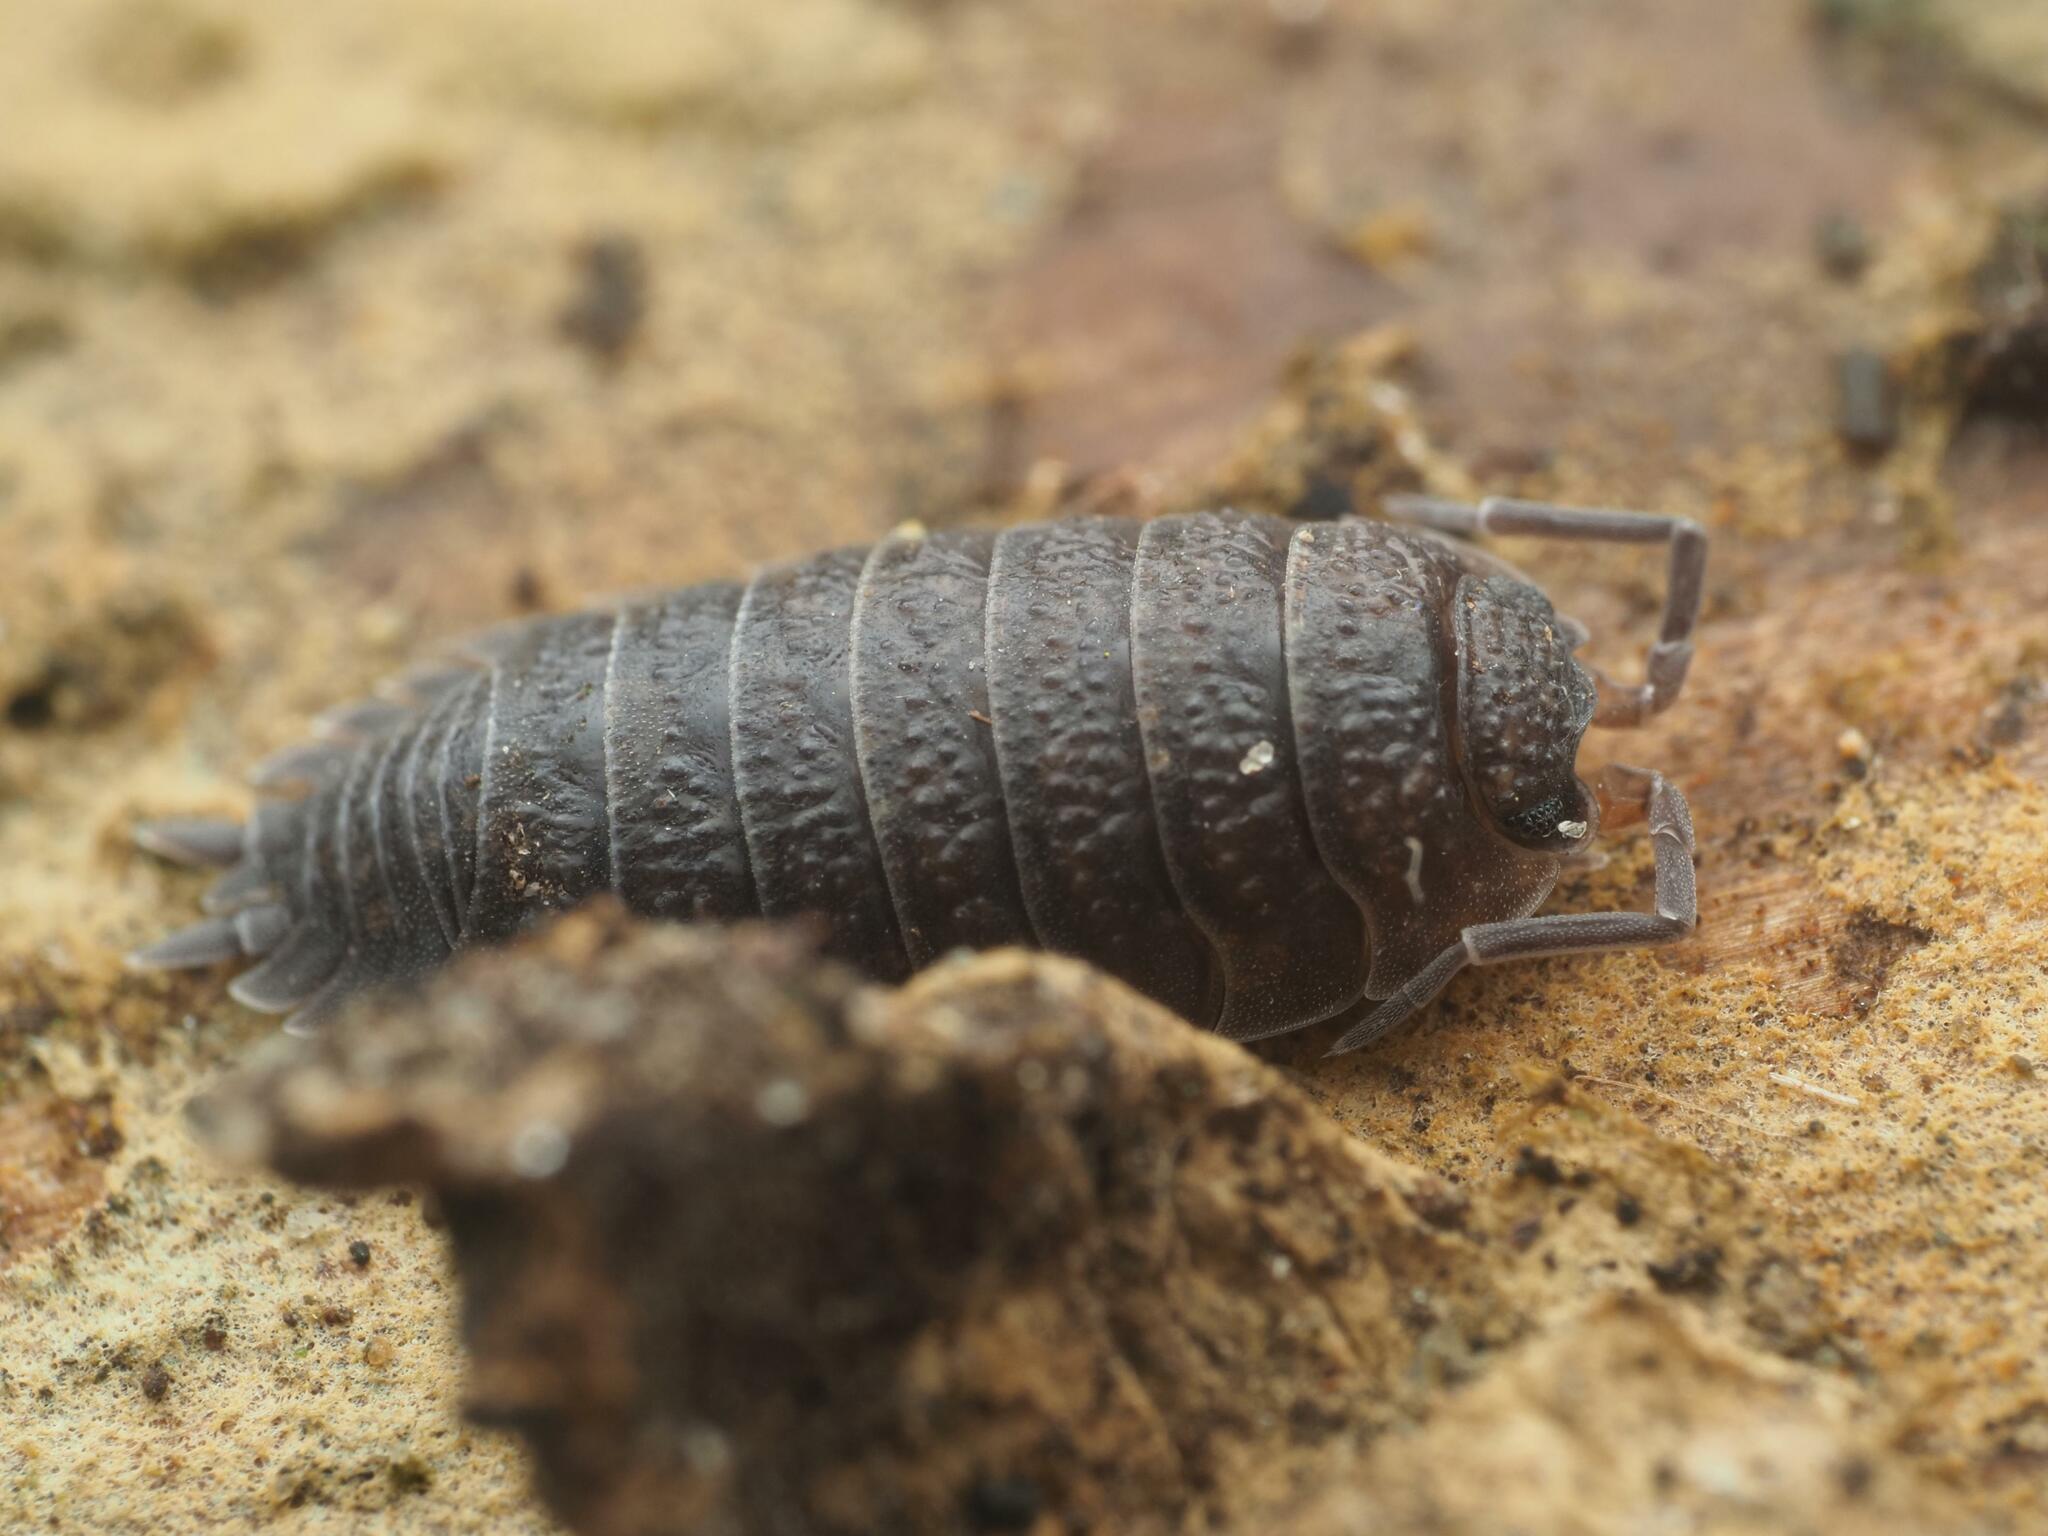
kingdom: Animalia
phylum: Arthropoda
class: Malacostraca
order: Isopoda
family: Porcellionidae
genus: Porcellio
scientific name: Porcellio scaber
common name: Common rough woodlouse
